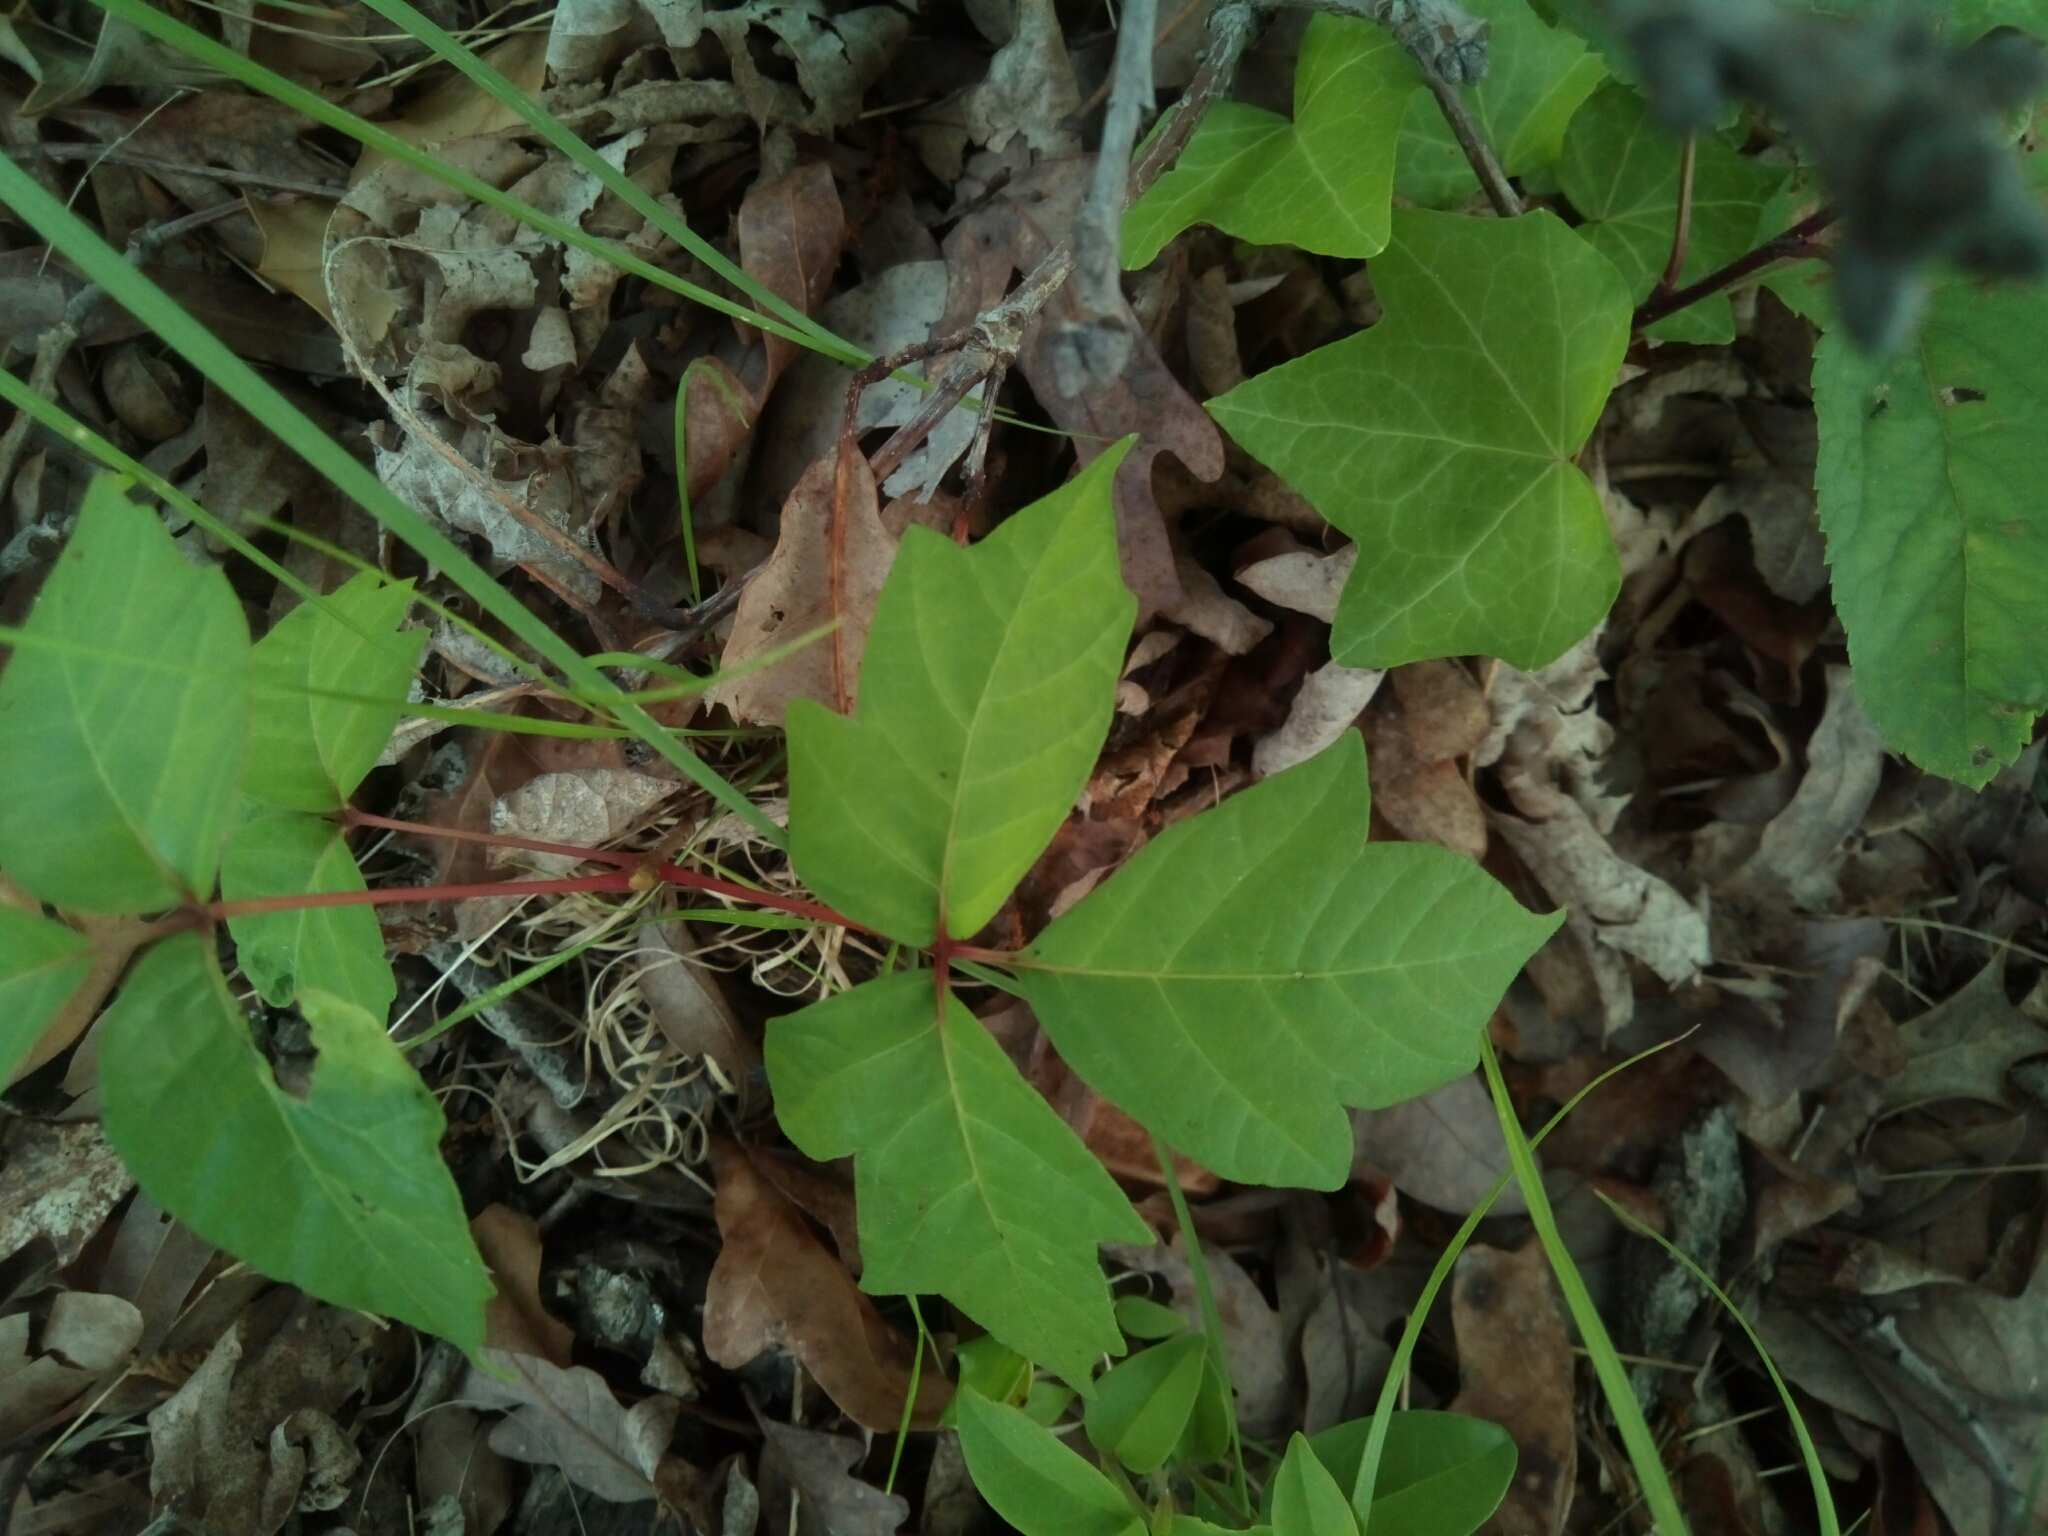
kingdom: Plantae
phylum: Tracheophyta
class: Magnoliopsida
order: Sapindales
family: Anacardiaceae
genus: Toxicodendron
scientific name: Toxicodendron radicans
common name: Poison ivy
